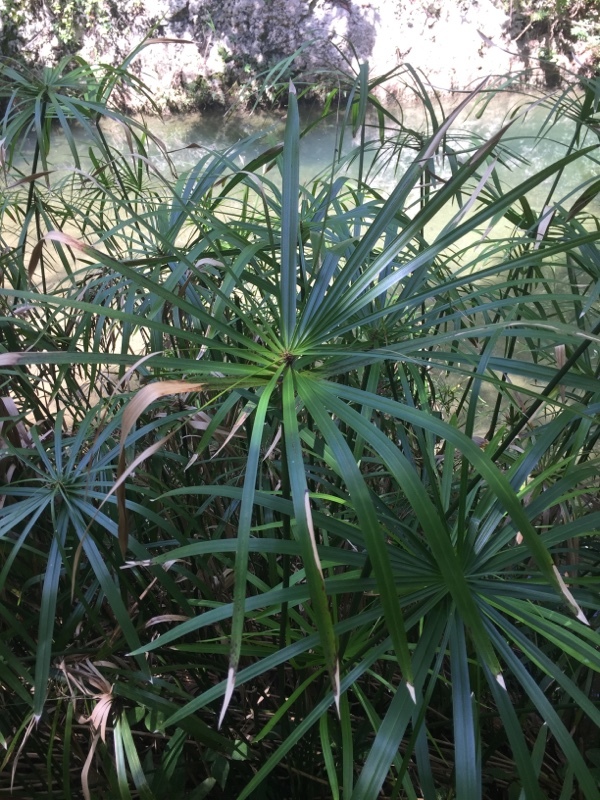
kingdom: Plantae
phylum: Tracheophyta
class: Liliopsida
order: Poales
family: Cyperaceae
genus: Cyperus
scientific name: Cyperus alternifolius
